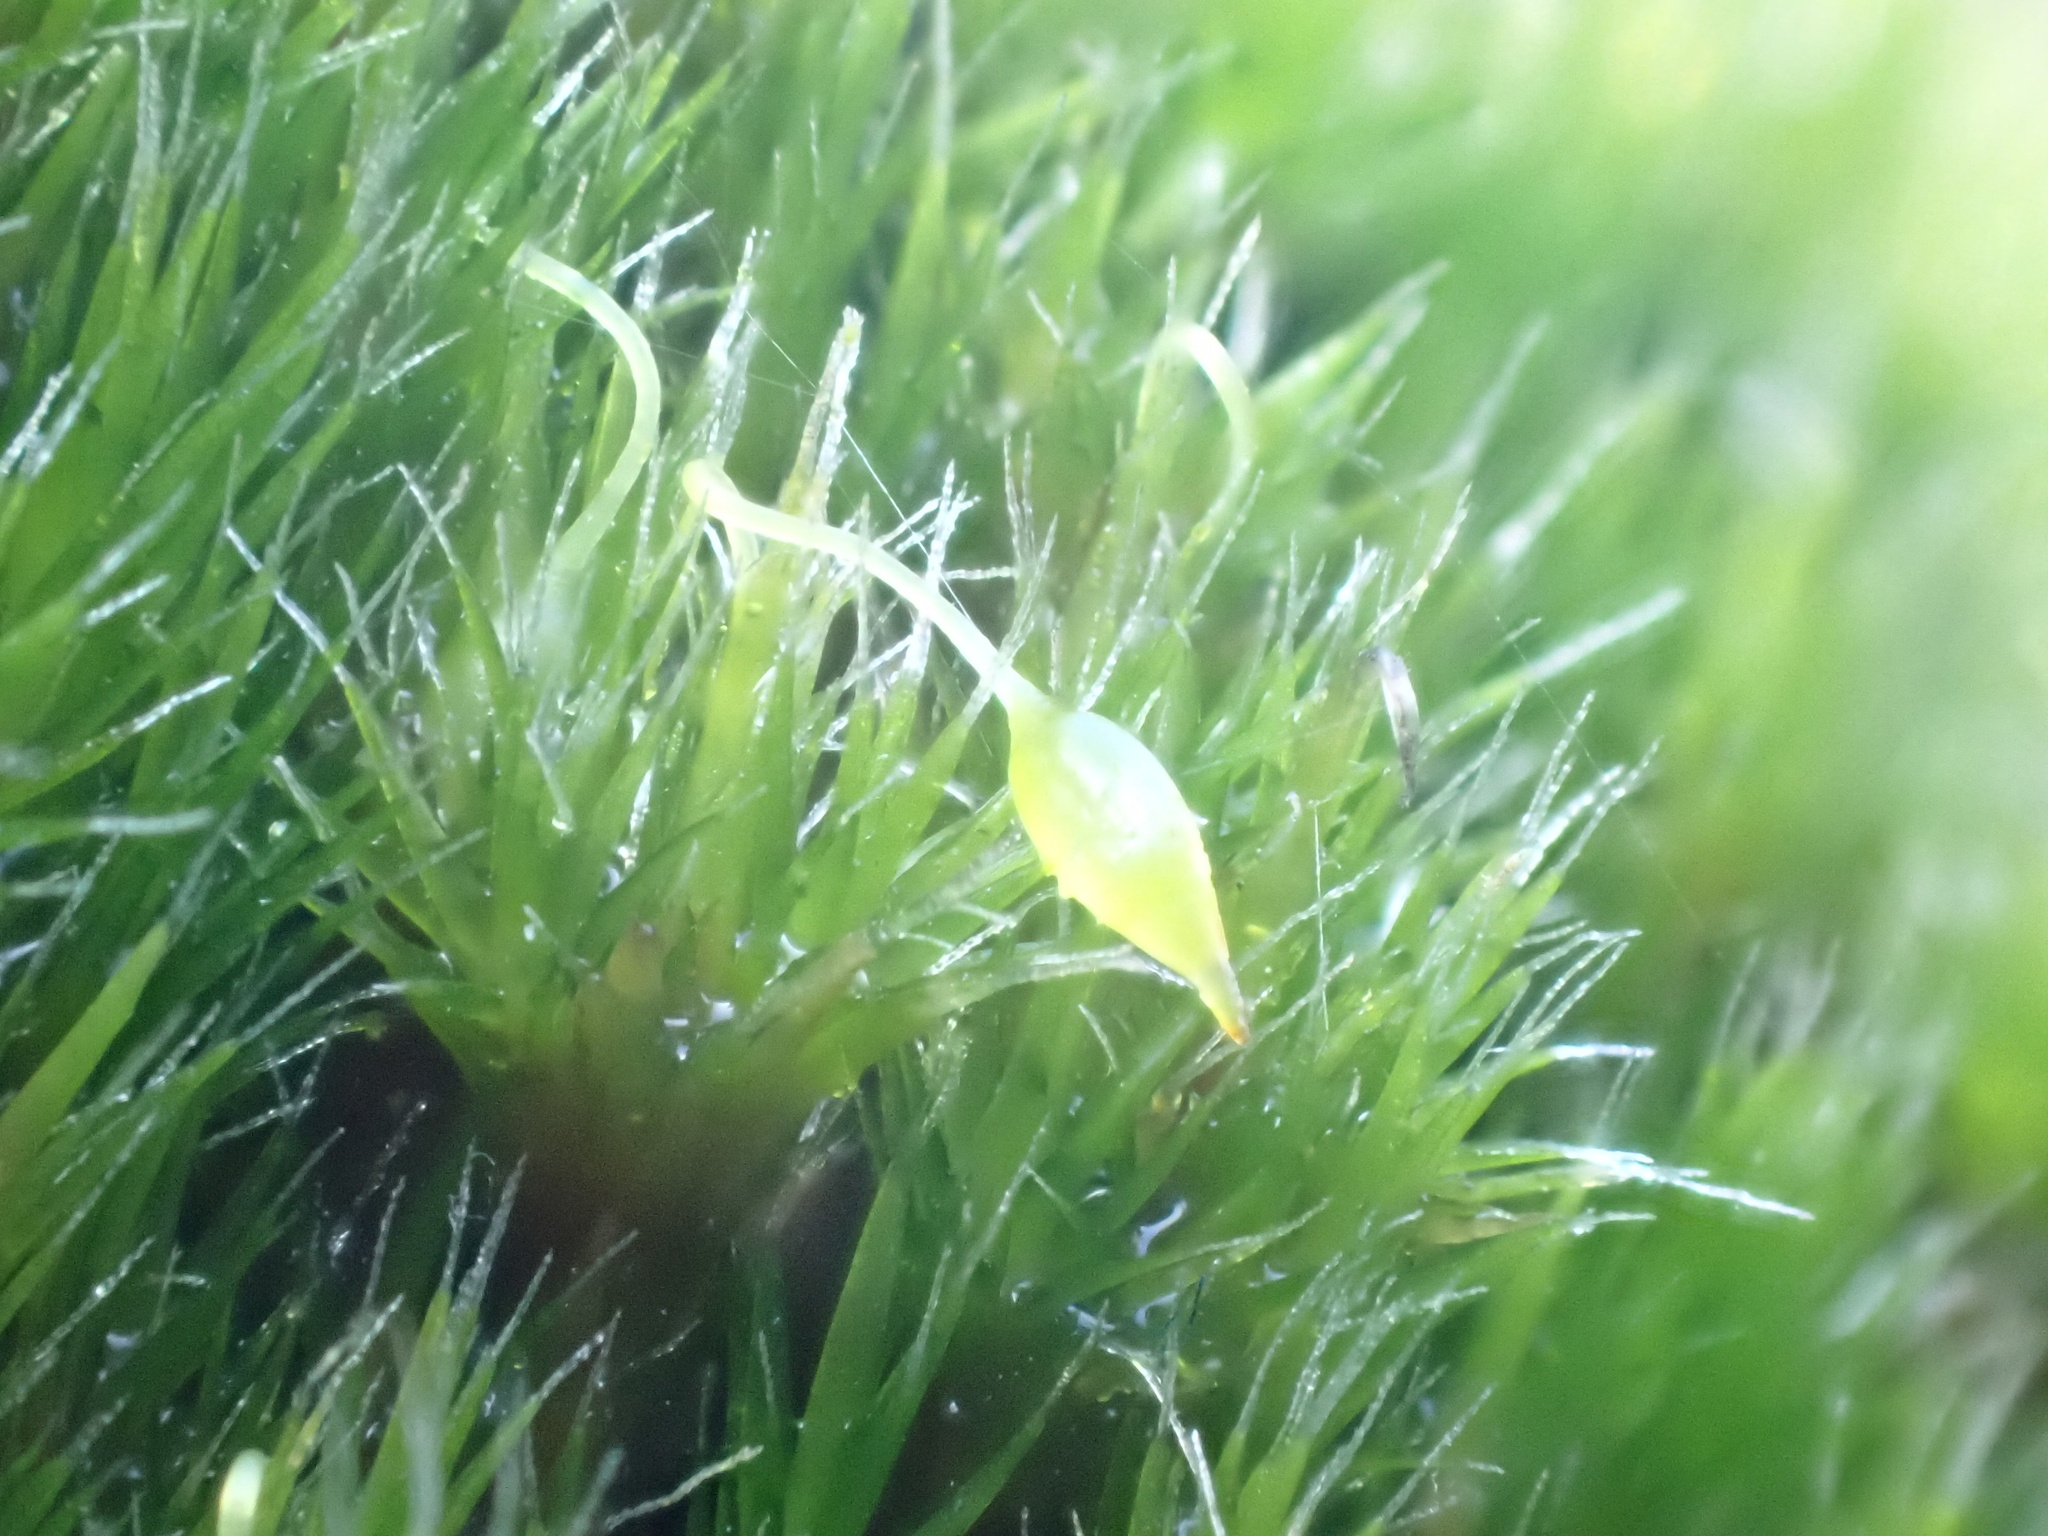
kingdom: Plantae
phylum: Bryophyta
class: Bryopsida
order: Dicranales
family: Leucobryaceae
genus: Campylopus
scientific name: Campylopus introflexus
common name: Heath star moss
